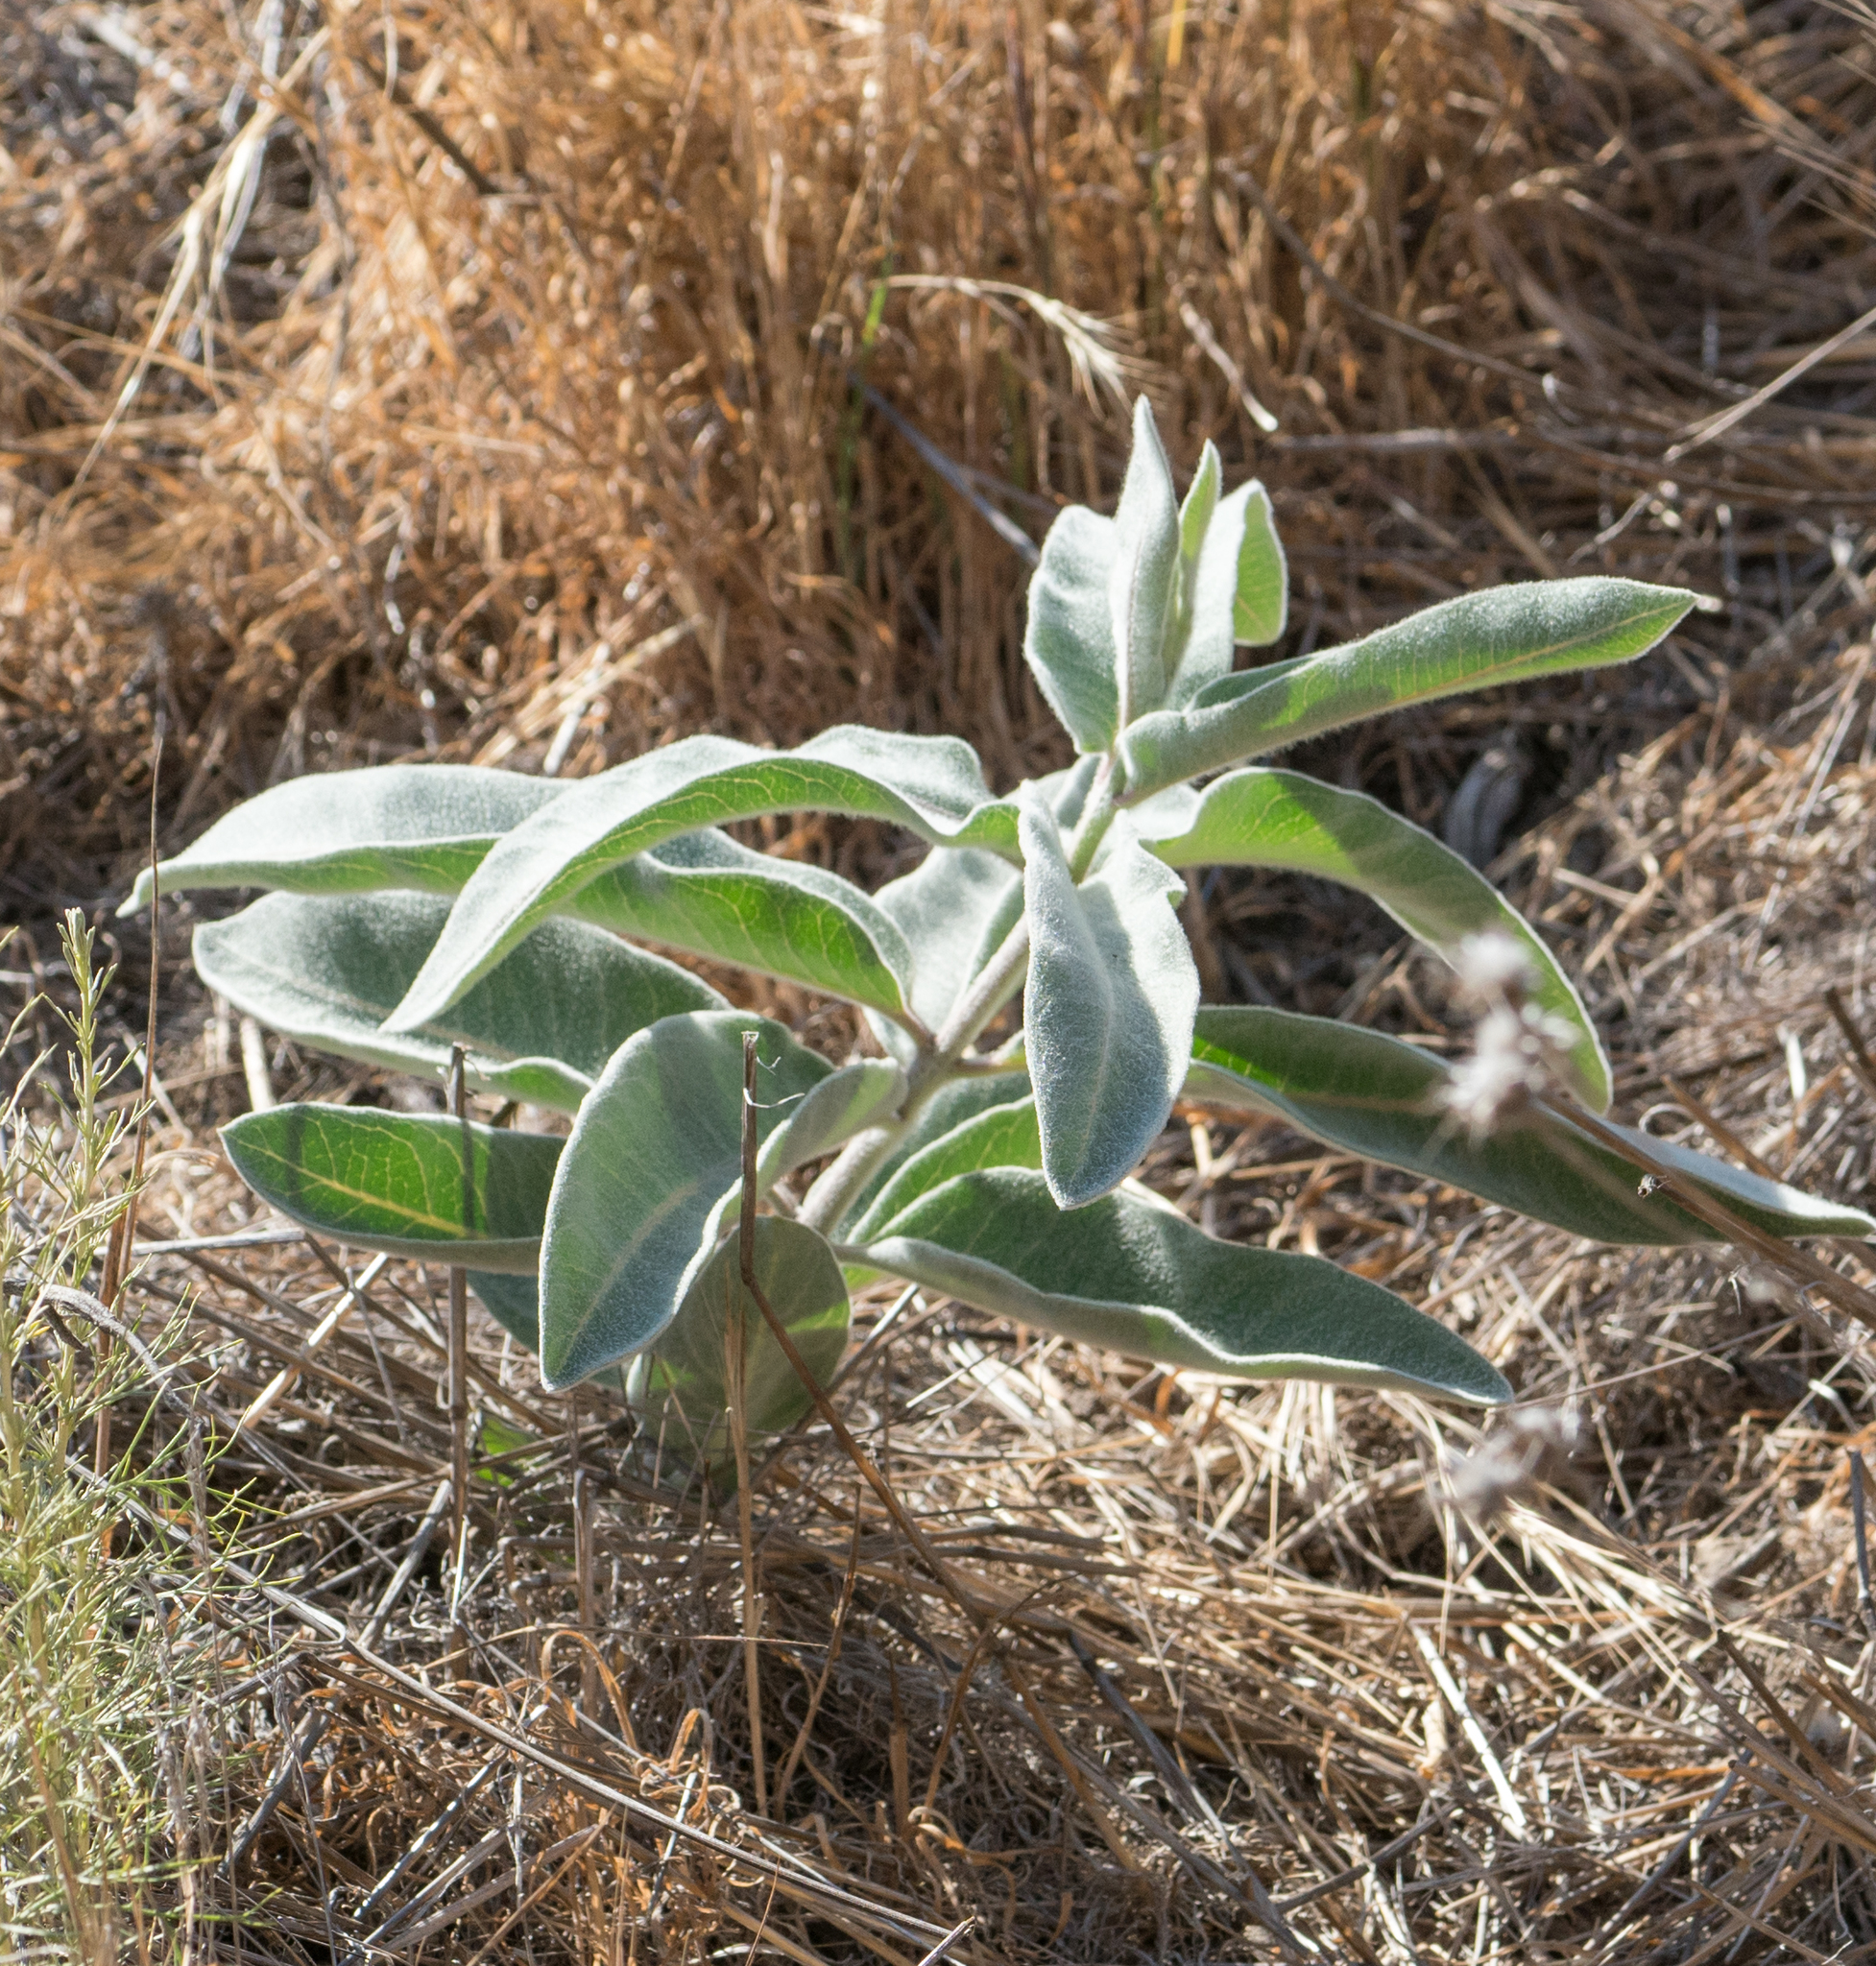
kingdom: Plantae
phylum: Tracheophyta
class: Magnoliopsida
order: Gentianales
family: Apocynaceae
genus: Asclepias
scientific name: Asclepias eriocarpa
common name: Indian milkweed
